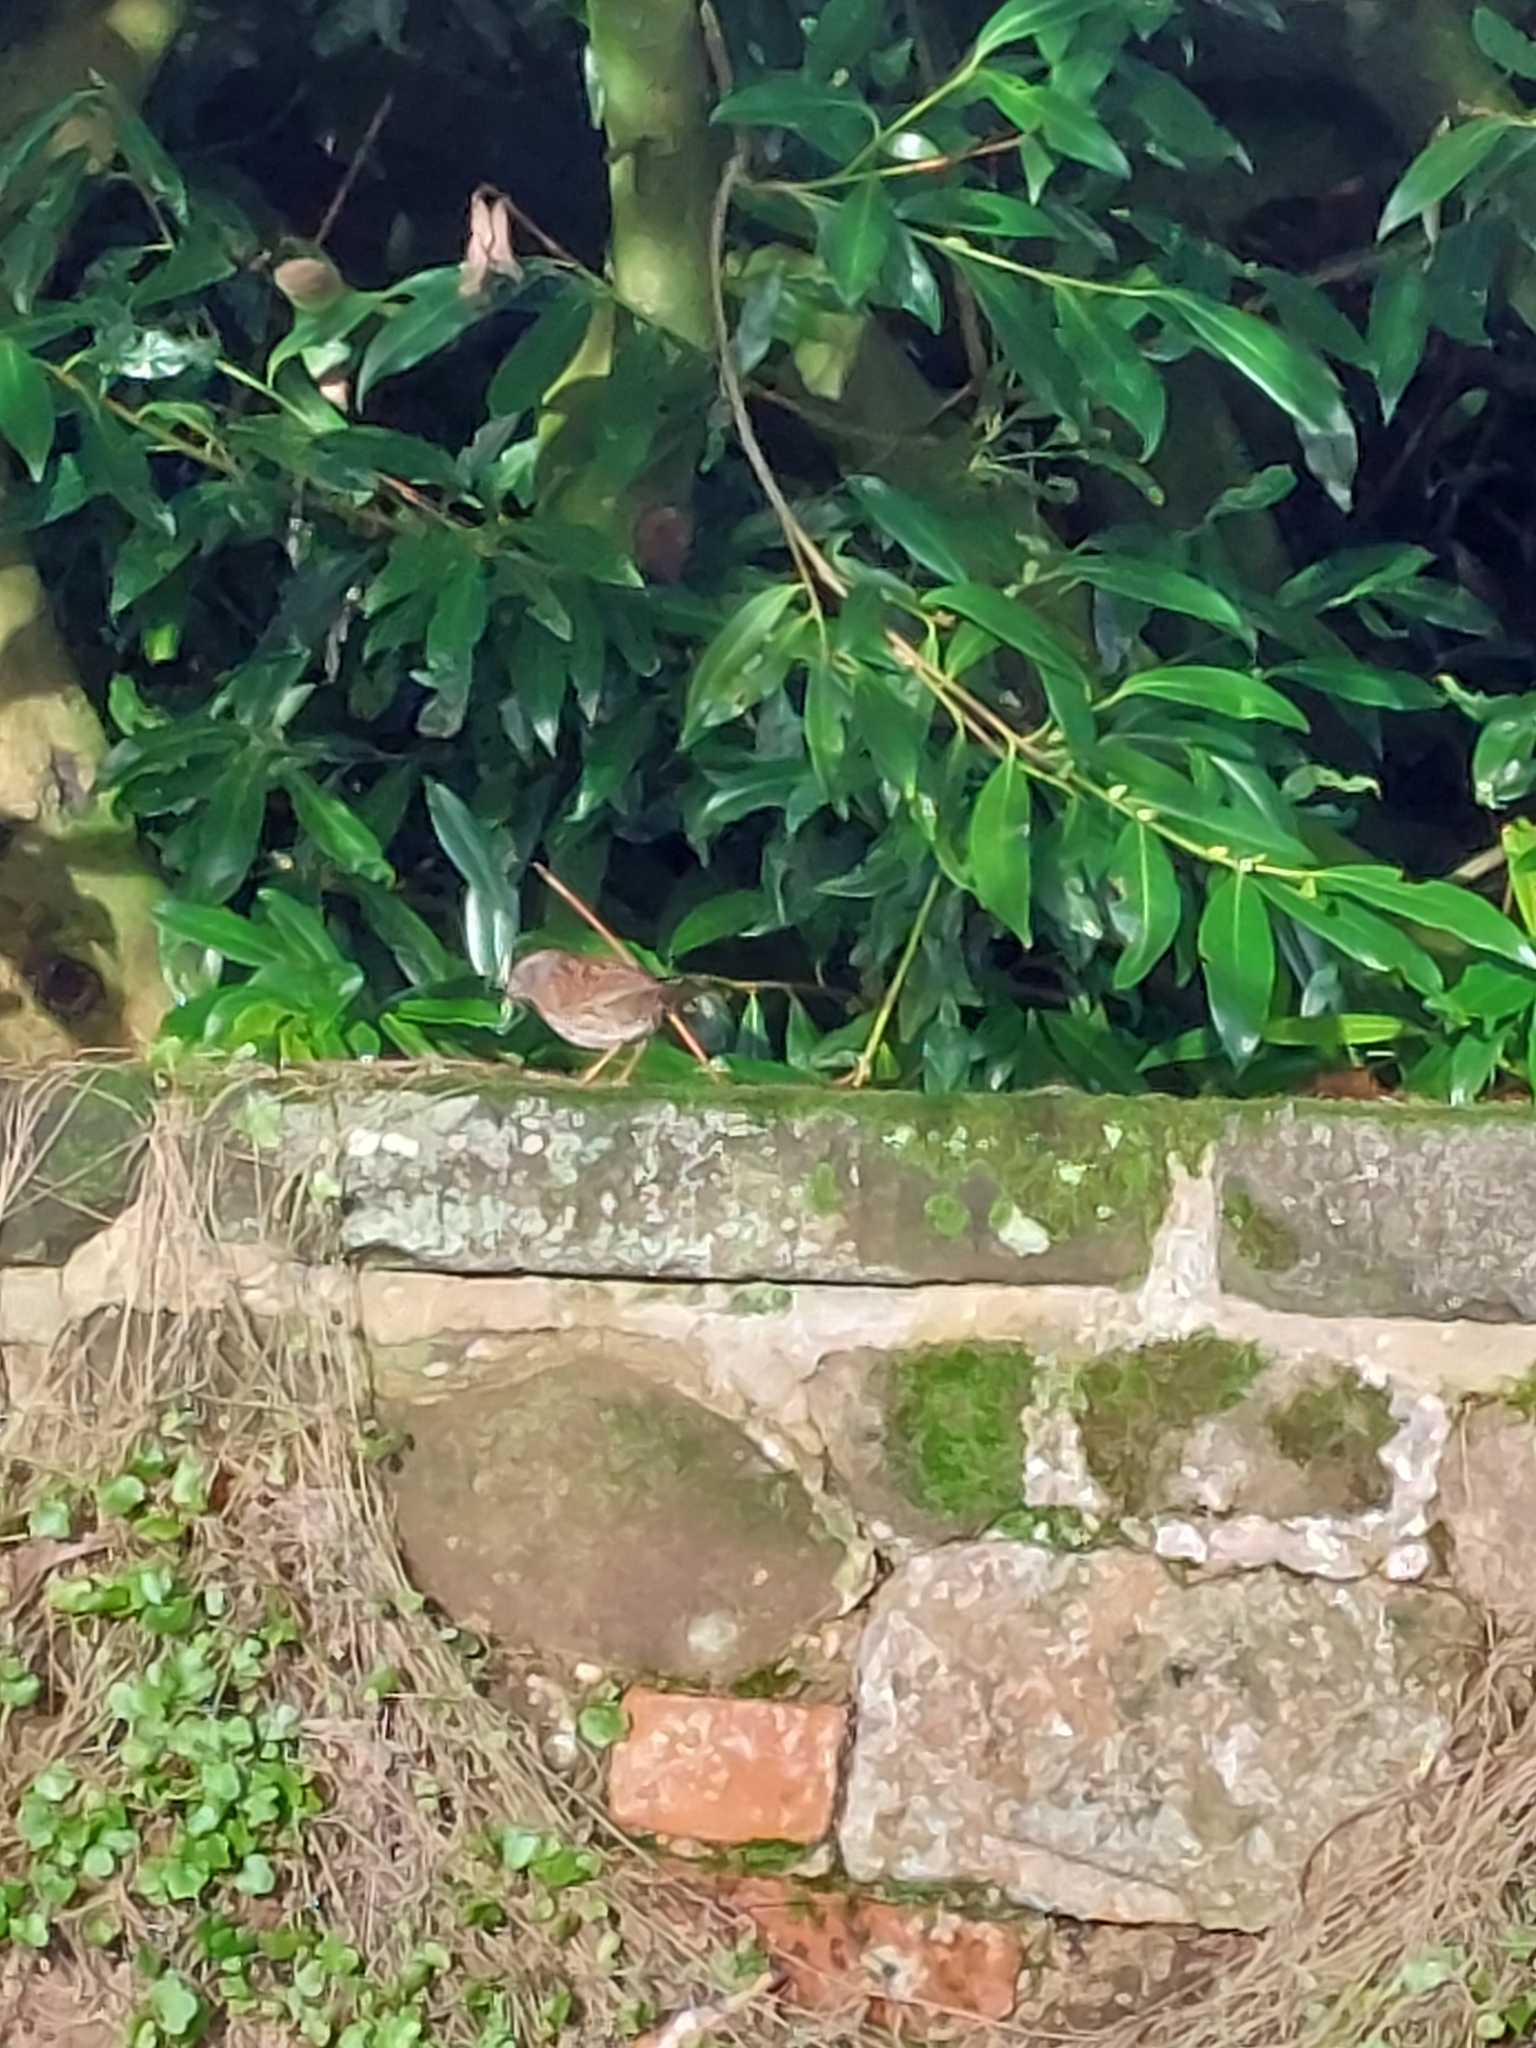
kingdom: Animalia
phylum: Chordata
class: Aves
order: Passeriformes
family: Prunellidae
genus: Prunella
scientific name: Prunella modularis
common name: Dunnock
